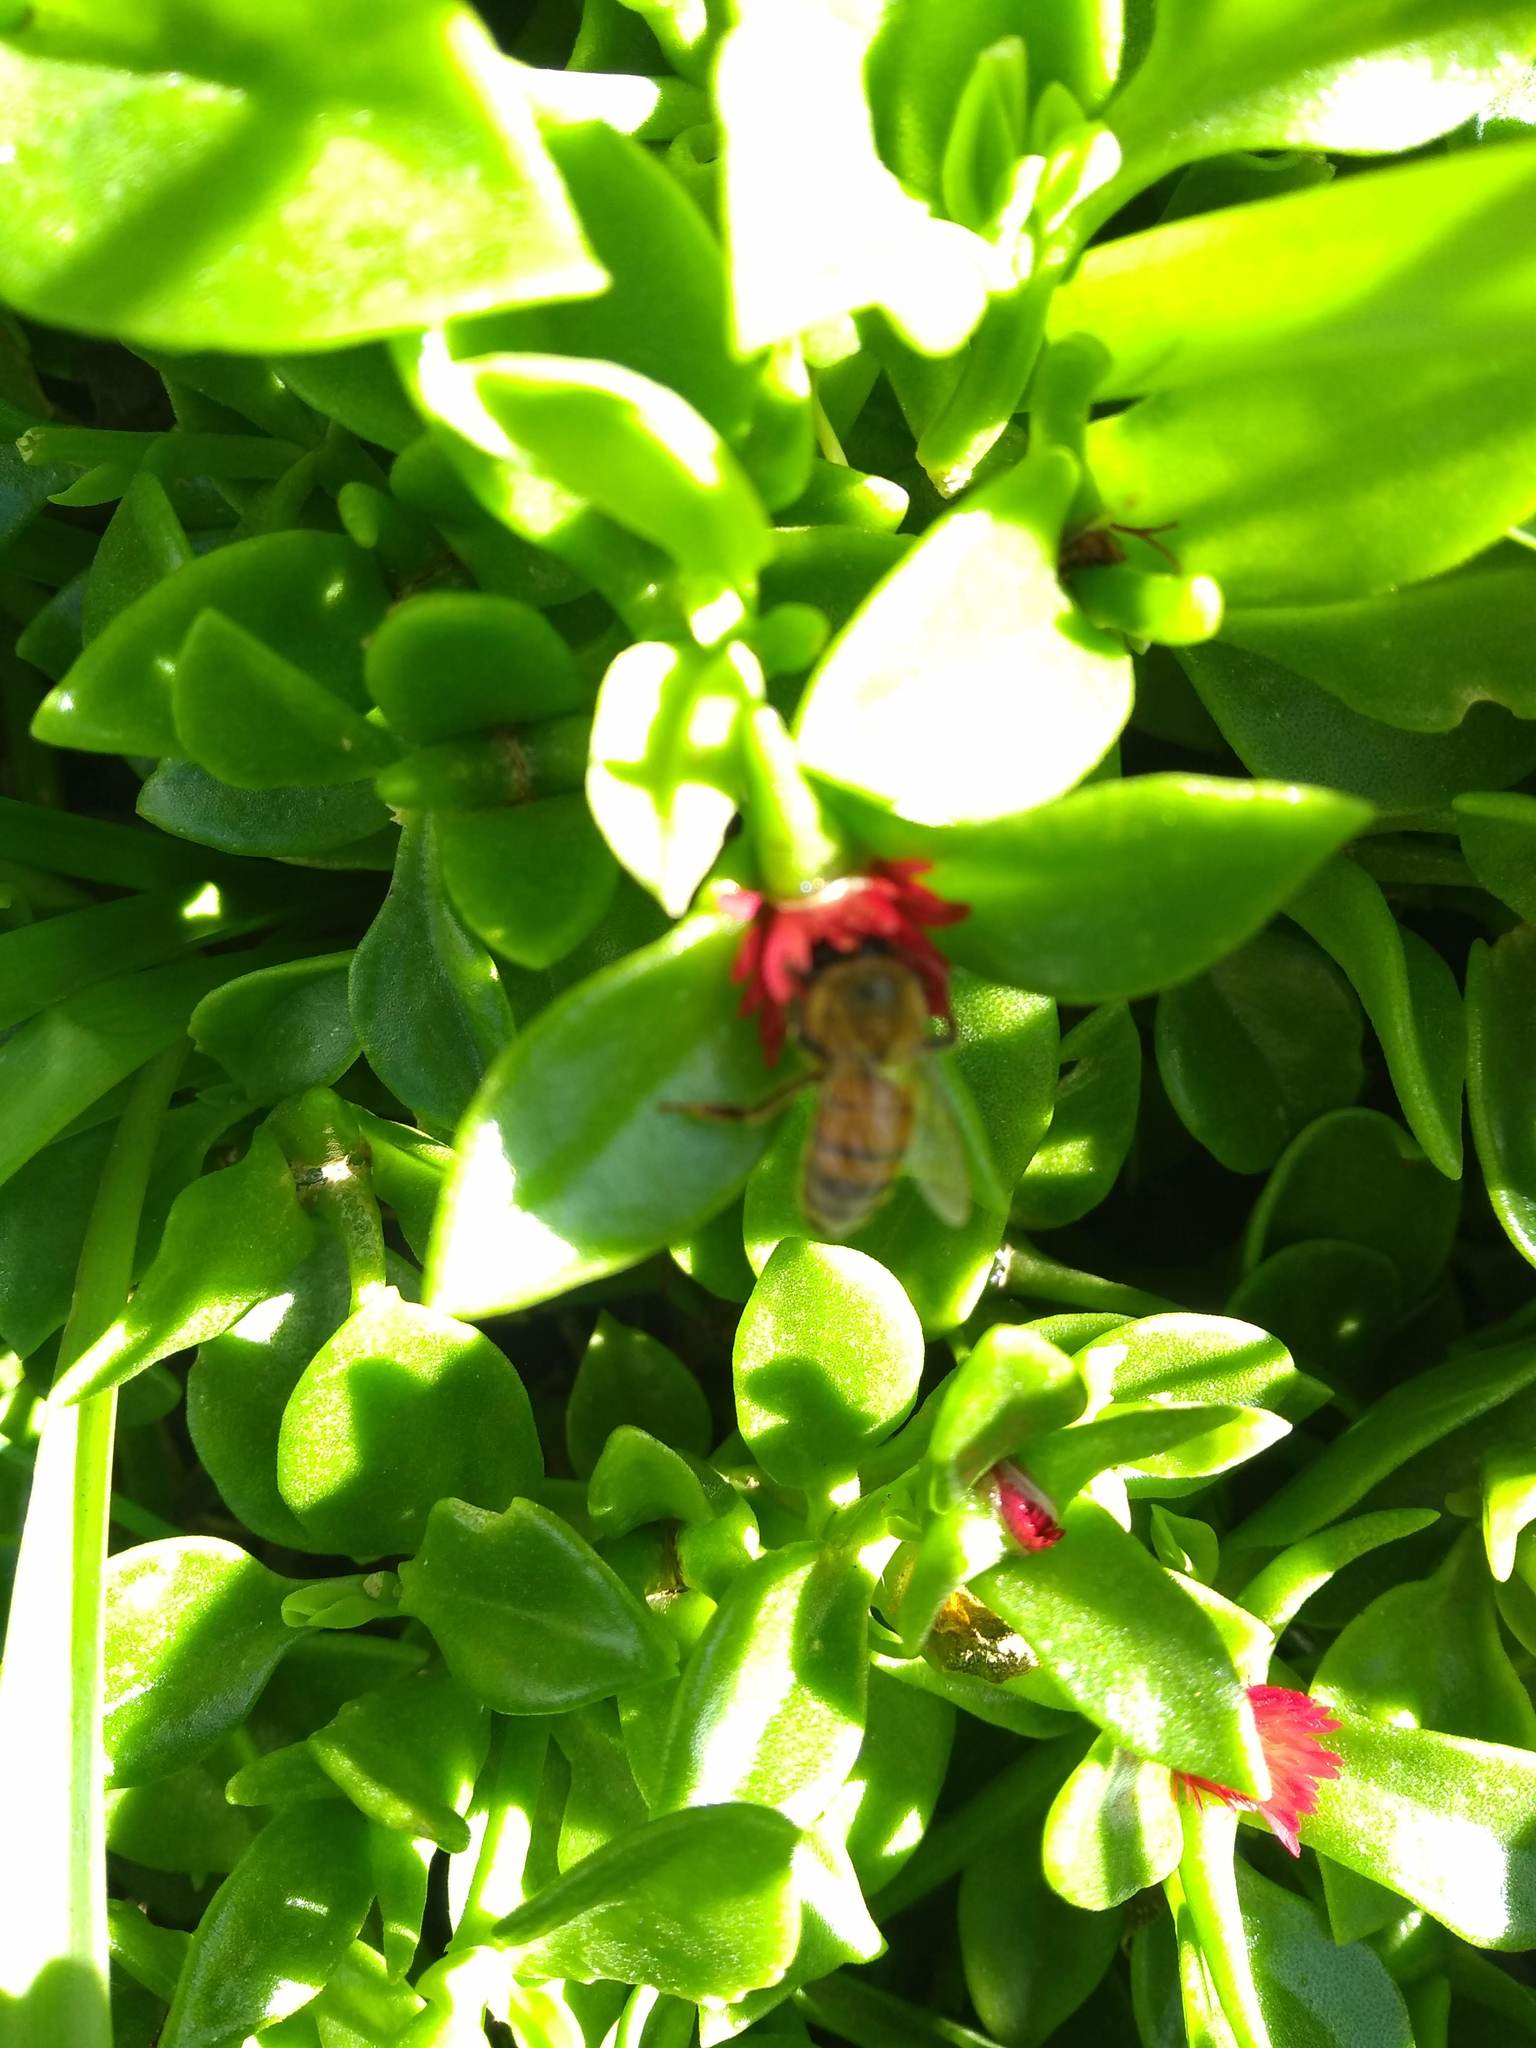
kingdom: Animalia
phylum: Arthropoda
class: Insecta
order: Hymenoptera
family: Apidae
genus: Apis
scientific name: Apis mellifera
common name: Honey bee
